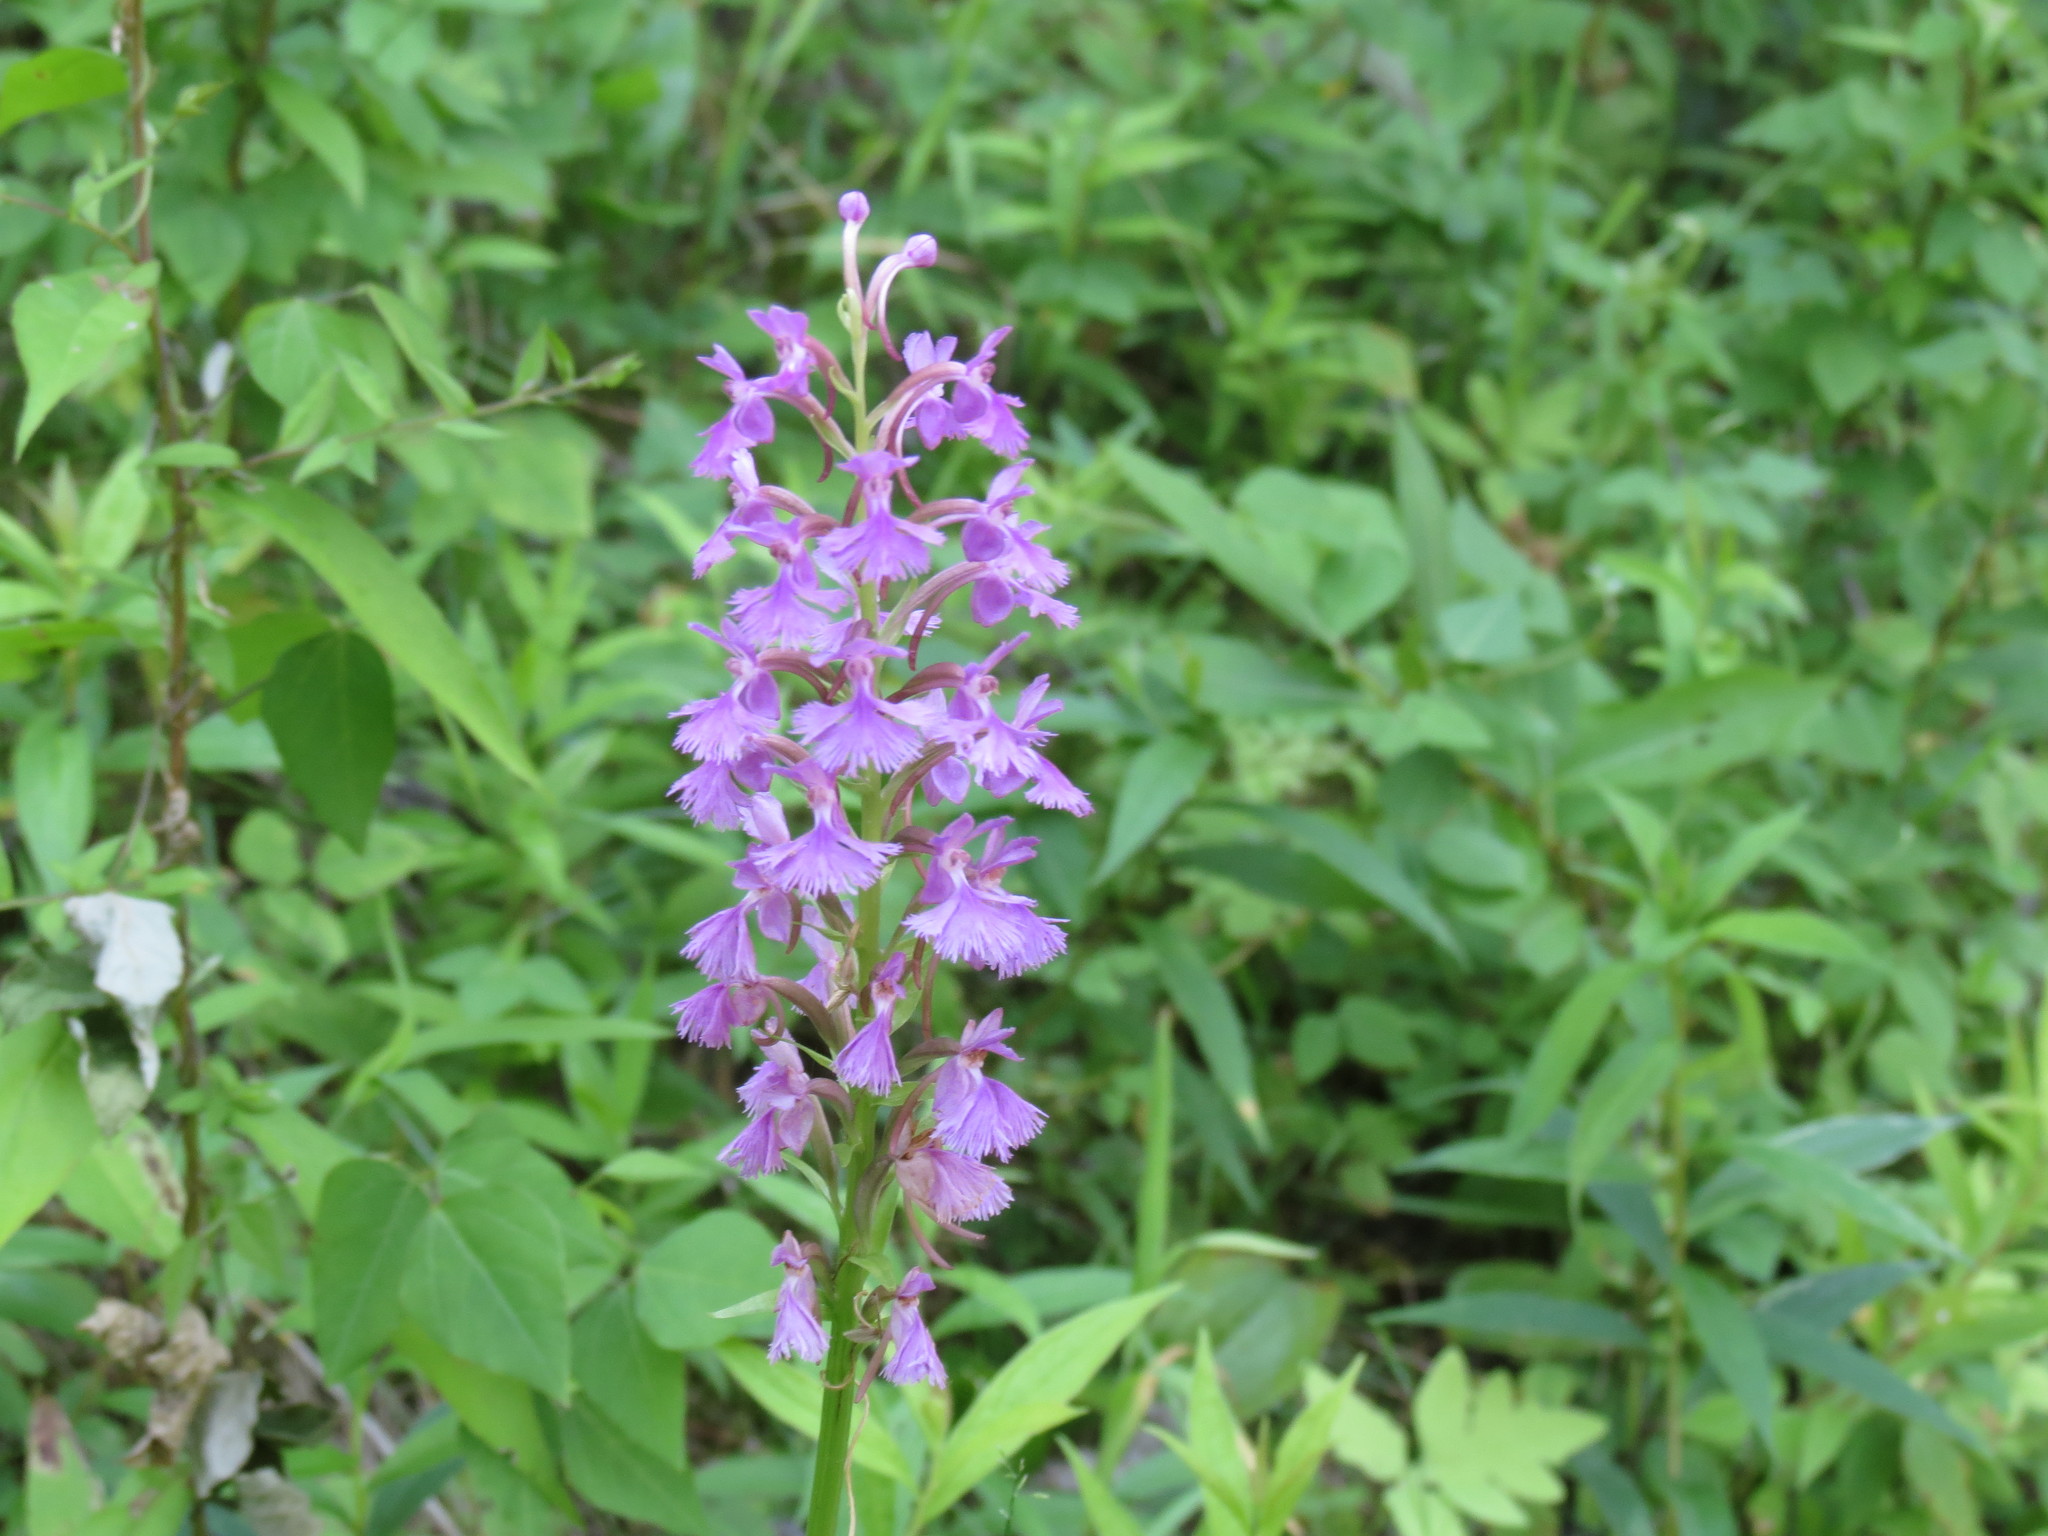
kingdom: Plantae
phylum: Tracheophyta
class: Liliopsida
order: Asparagales
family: Orchidaceae
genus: Platanthera
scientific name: Platanthera psycodes
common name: Lesser purple fringed orchid
